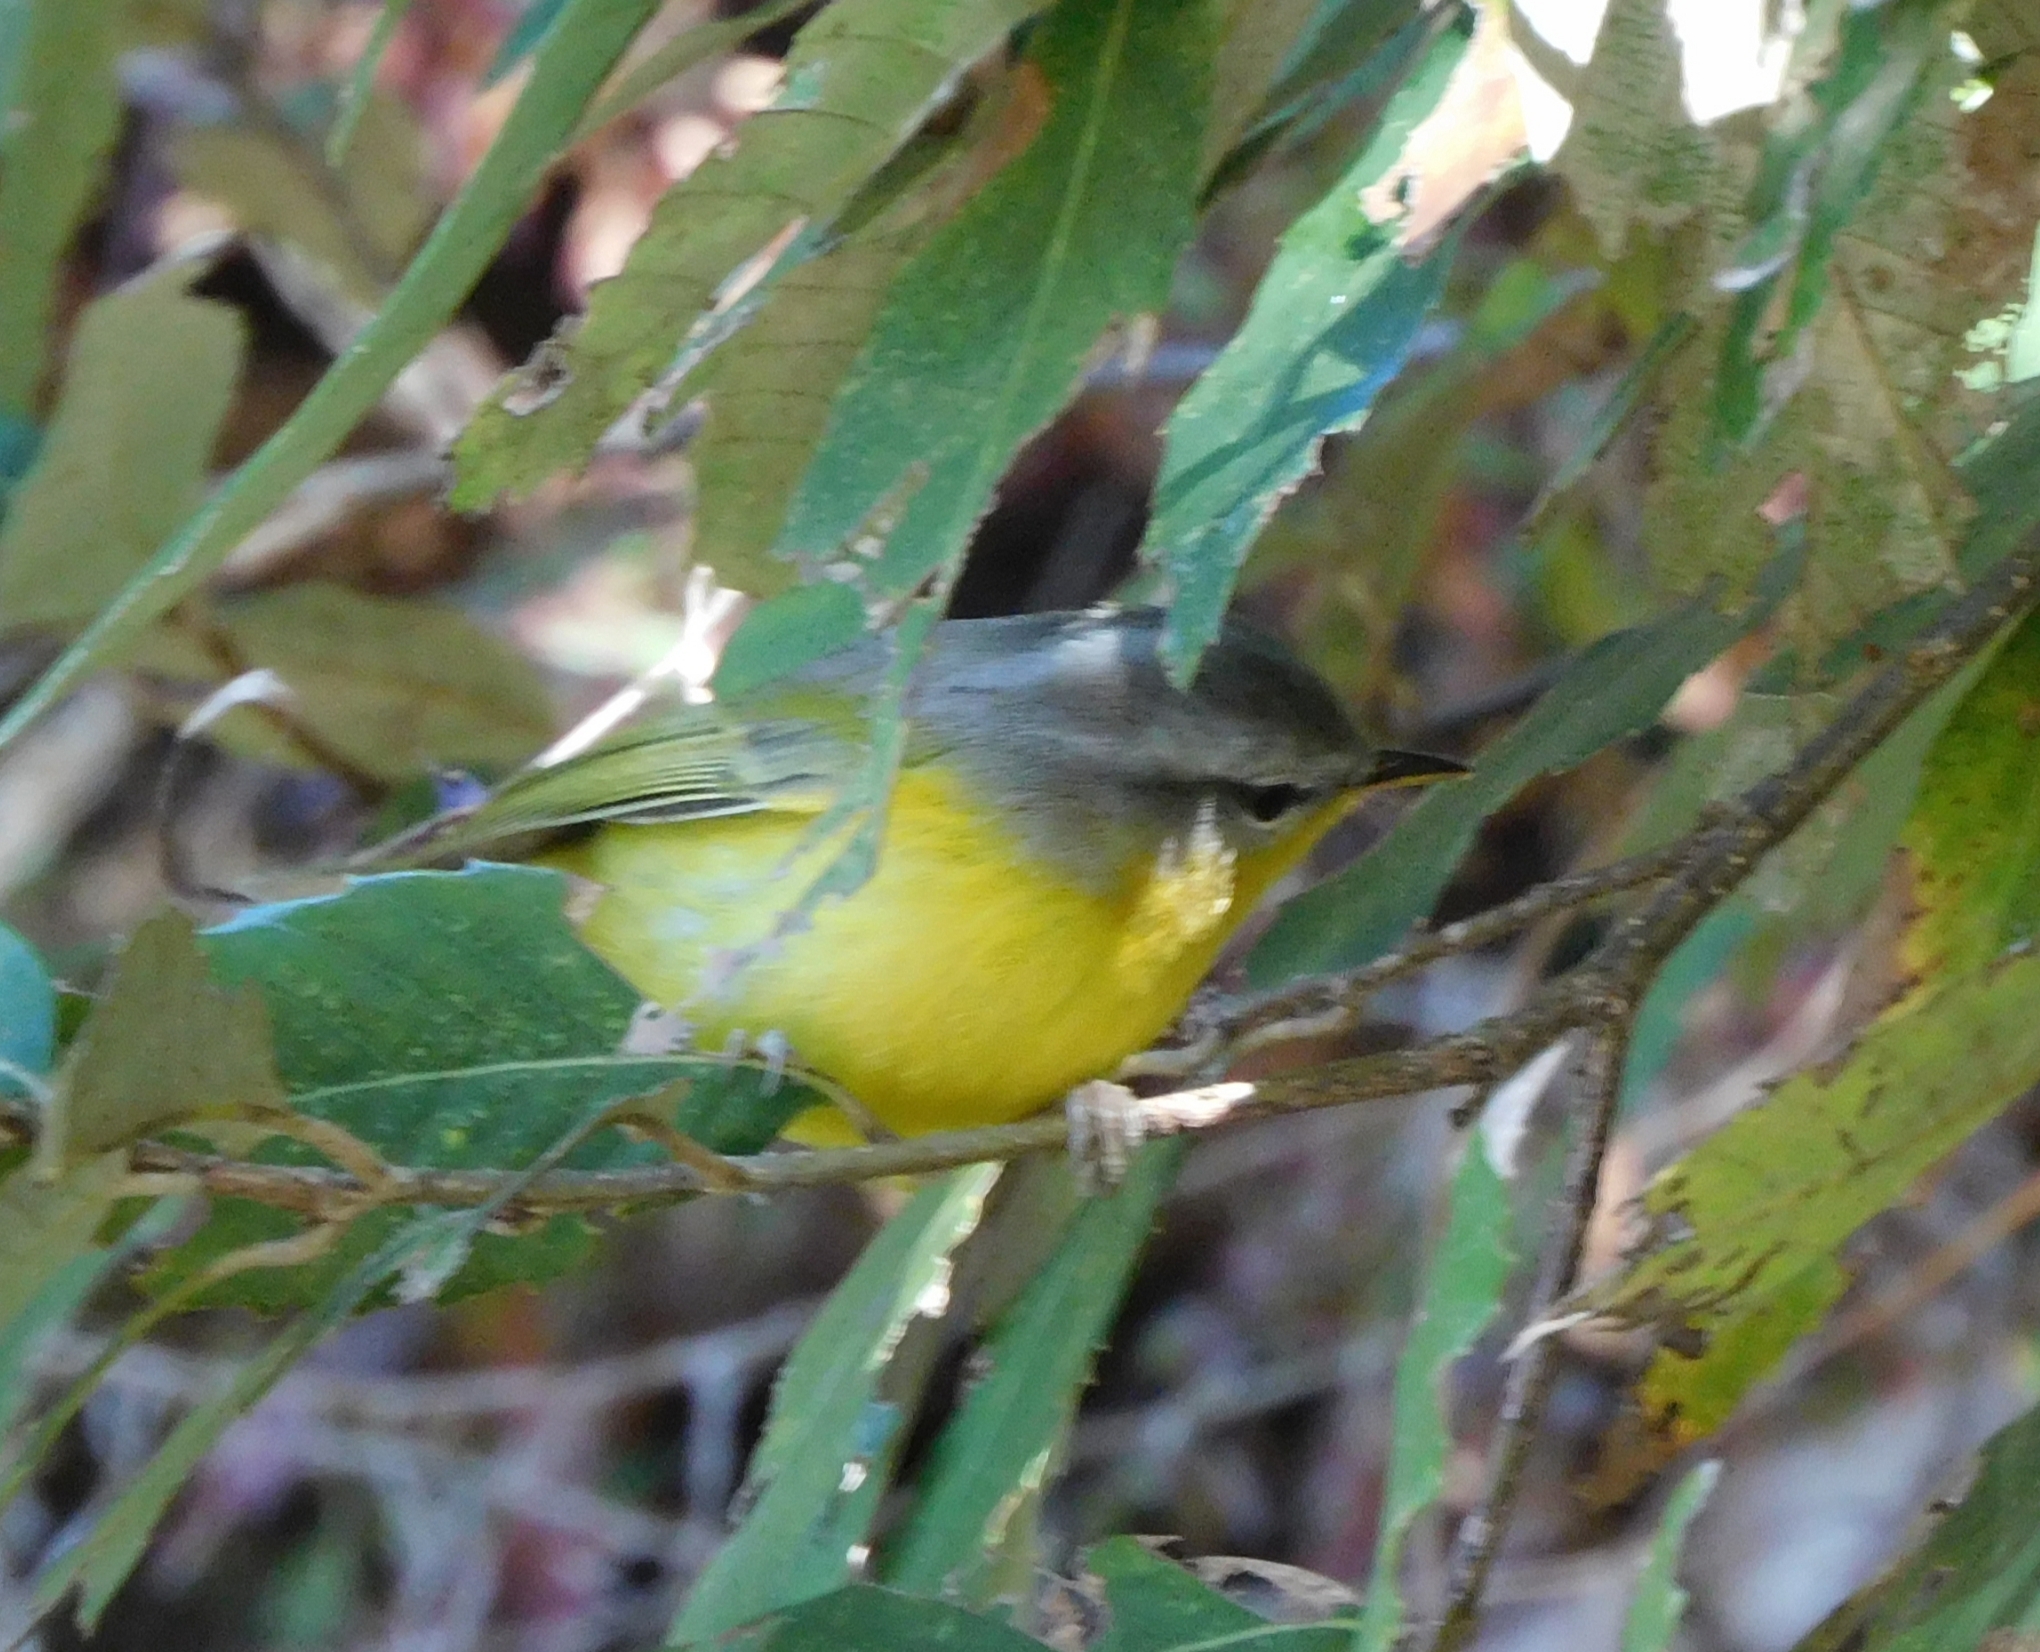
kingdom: Animalia
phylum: Chordata
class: Aves
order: Passeriformes
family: Phylloscopidae
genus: Phylloscopus
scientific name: Phylloscopus xanthoschistos
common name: Grey-hooded warbler
